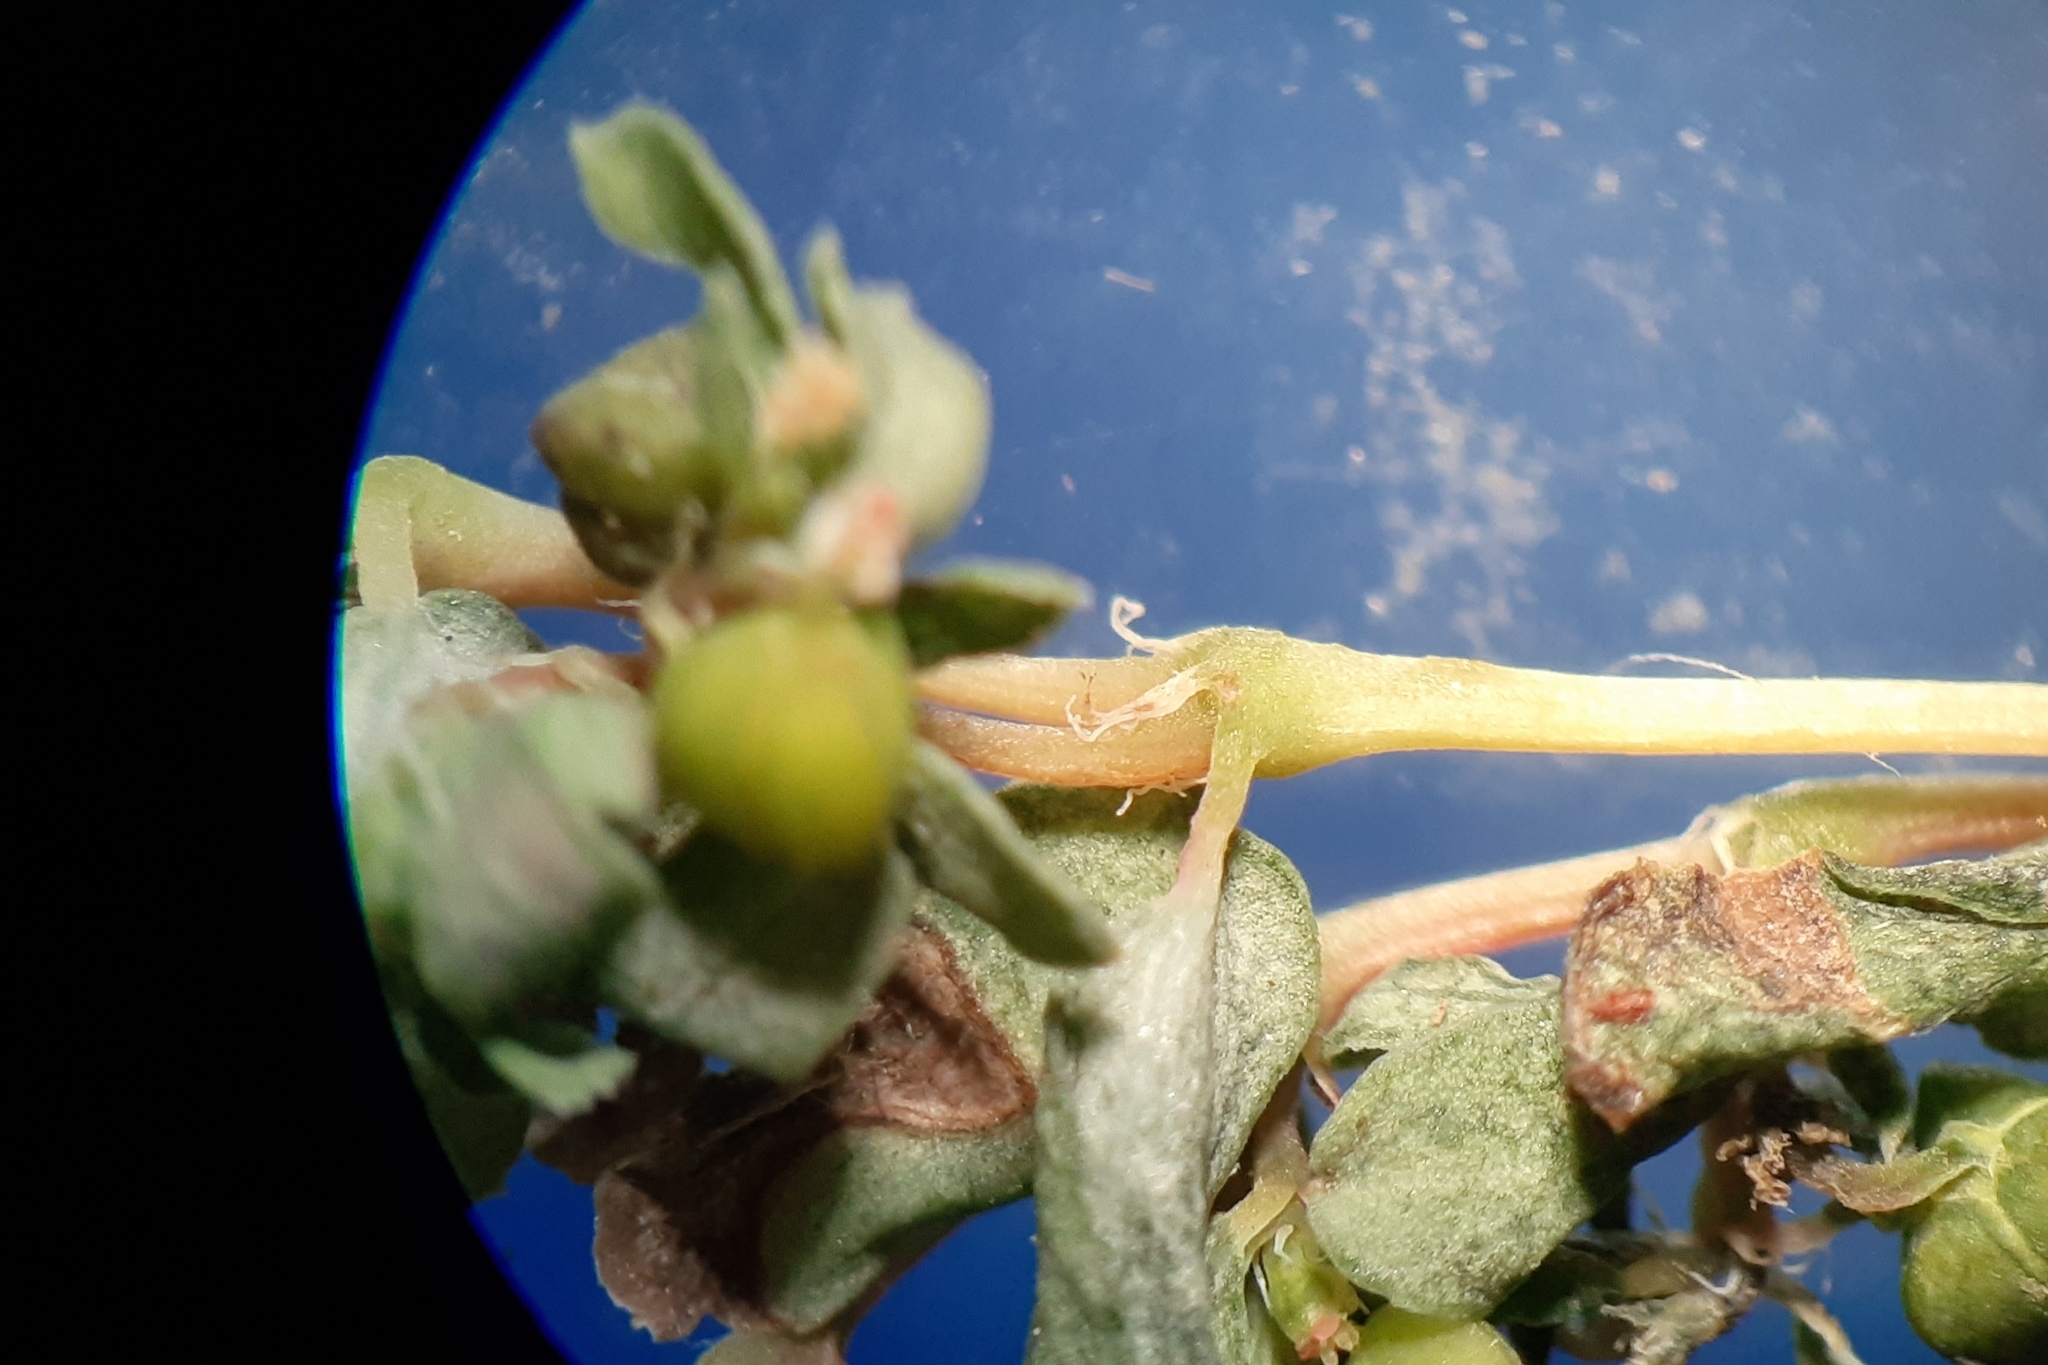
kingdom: Plantae
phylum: Tracheophyta
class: Magnoliopsida
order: Malpighiales
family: Euphorbiaceae
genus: Euphorbia
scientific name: Euphorbia glyptosperma
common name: Corrugate-seeded spurge
